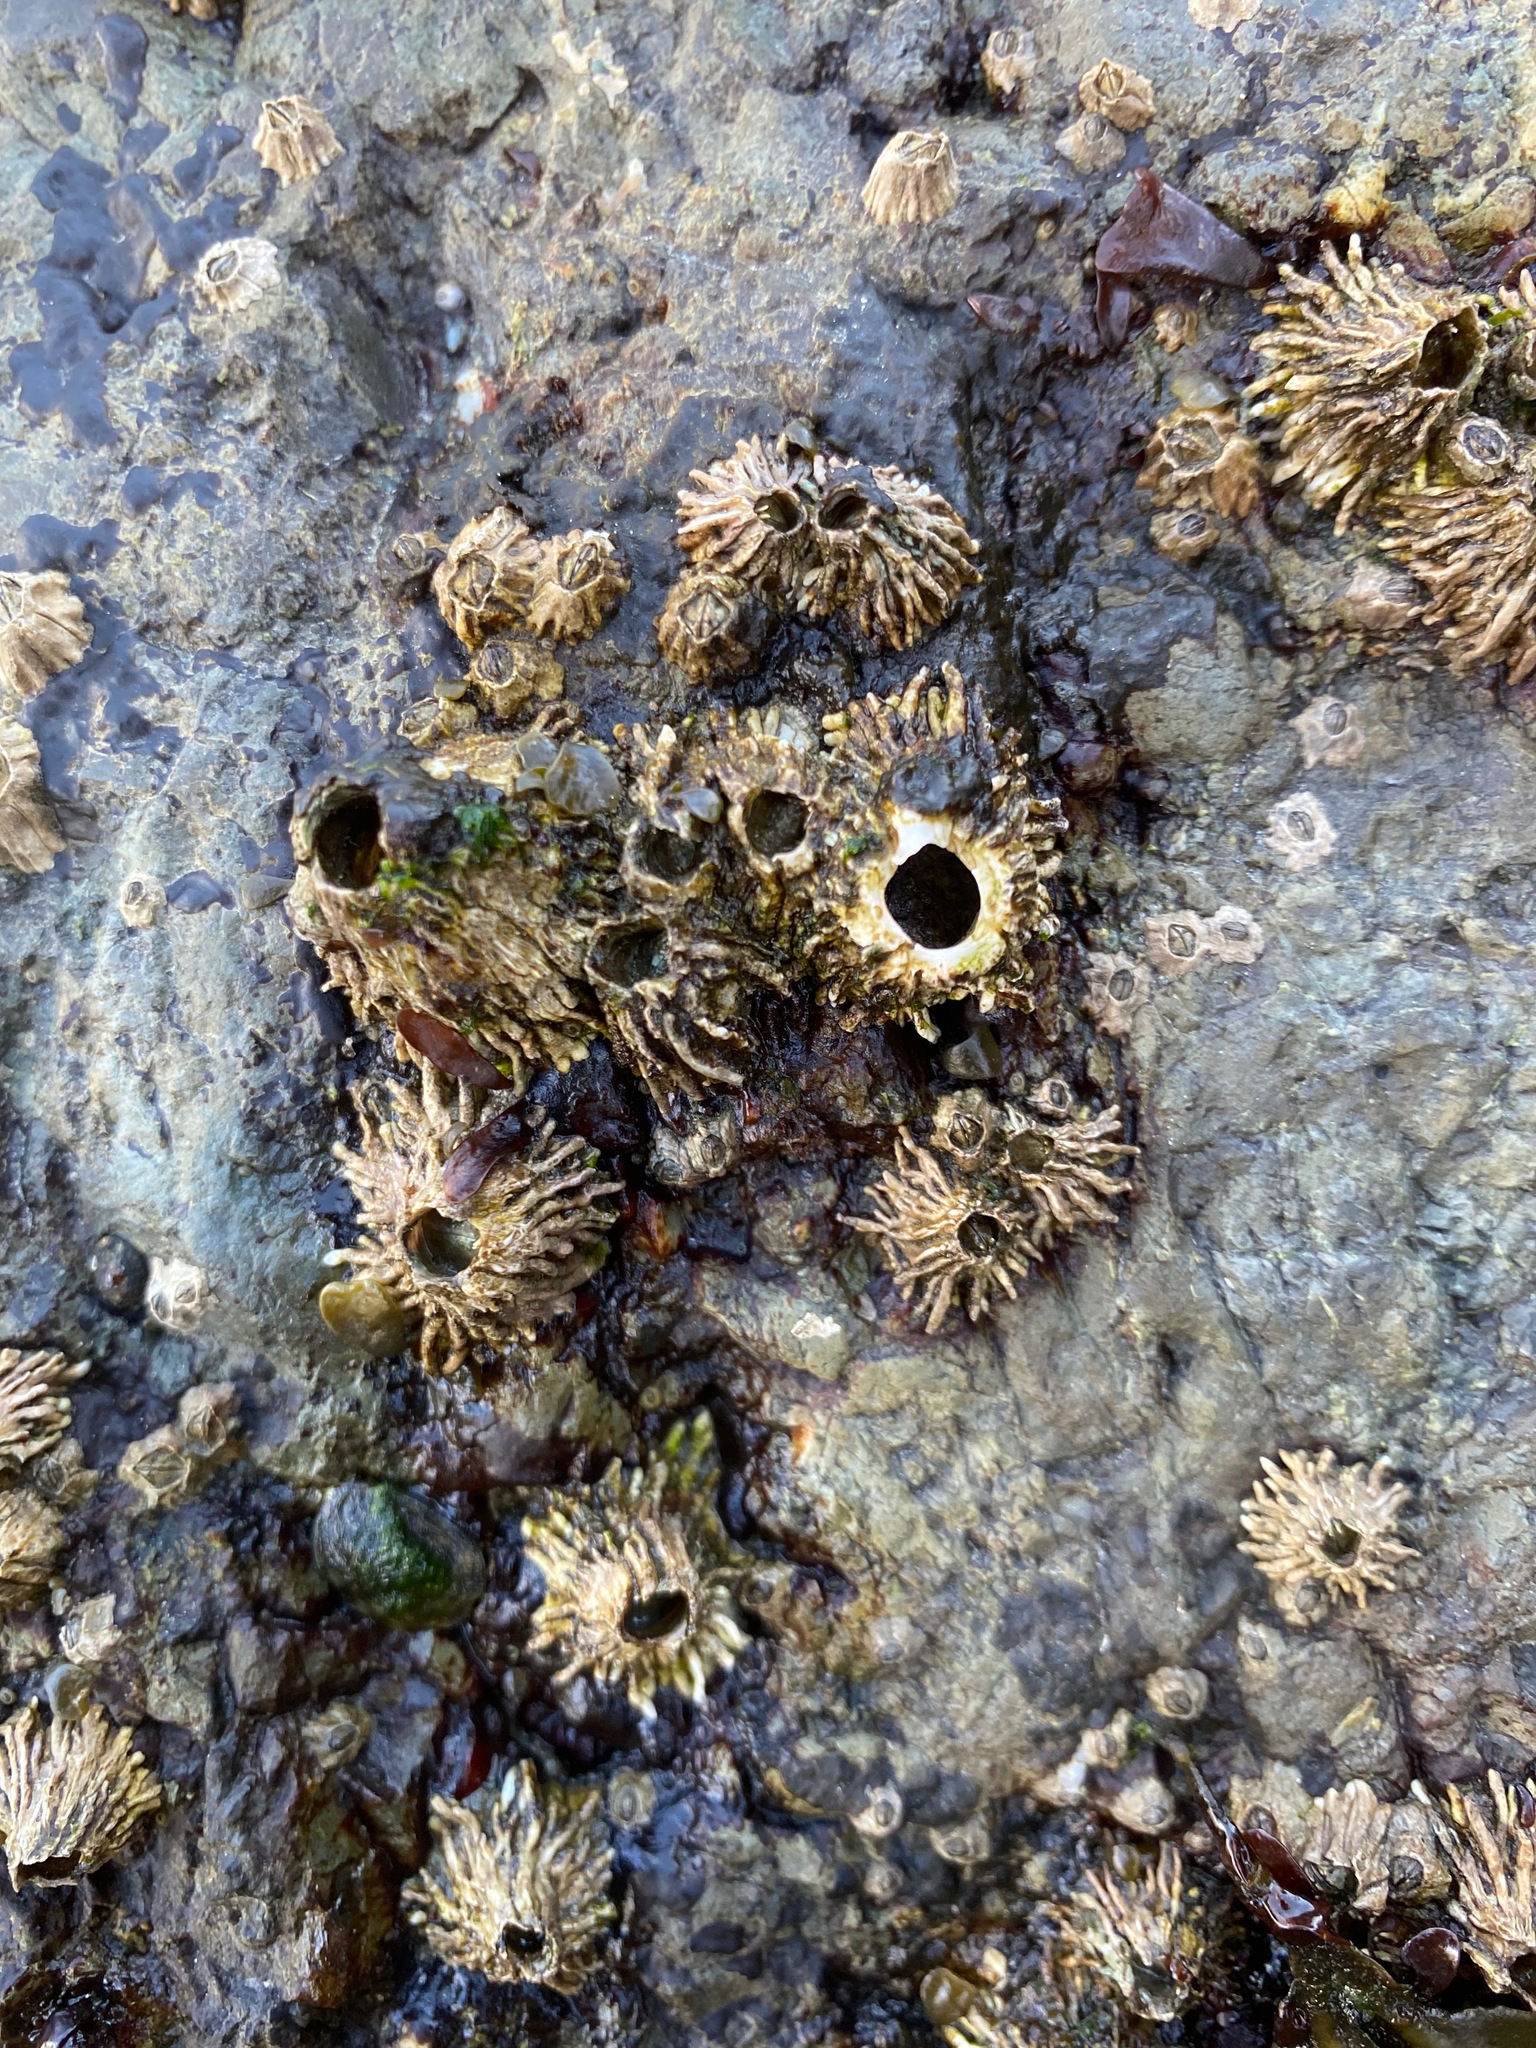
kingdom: Animalia
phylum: Arthropoda
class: Maxillopoda
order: Sessilia
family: Archaeobalanidae
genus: Semibalanus
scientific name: Semibalanus cariosus
